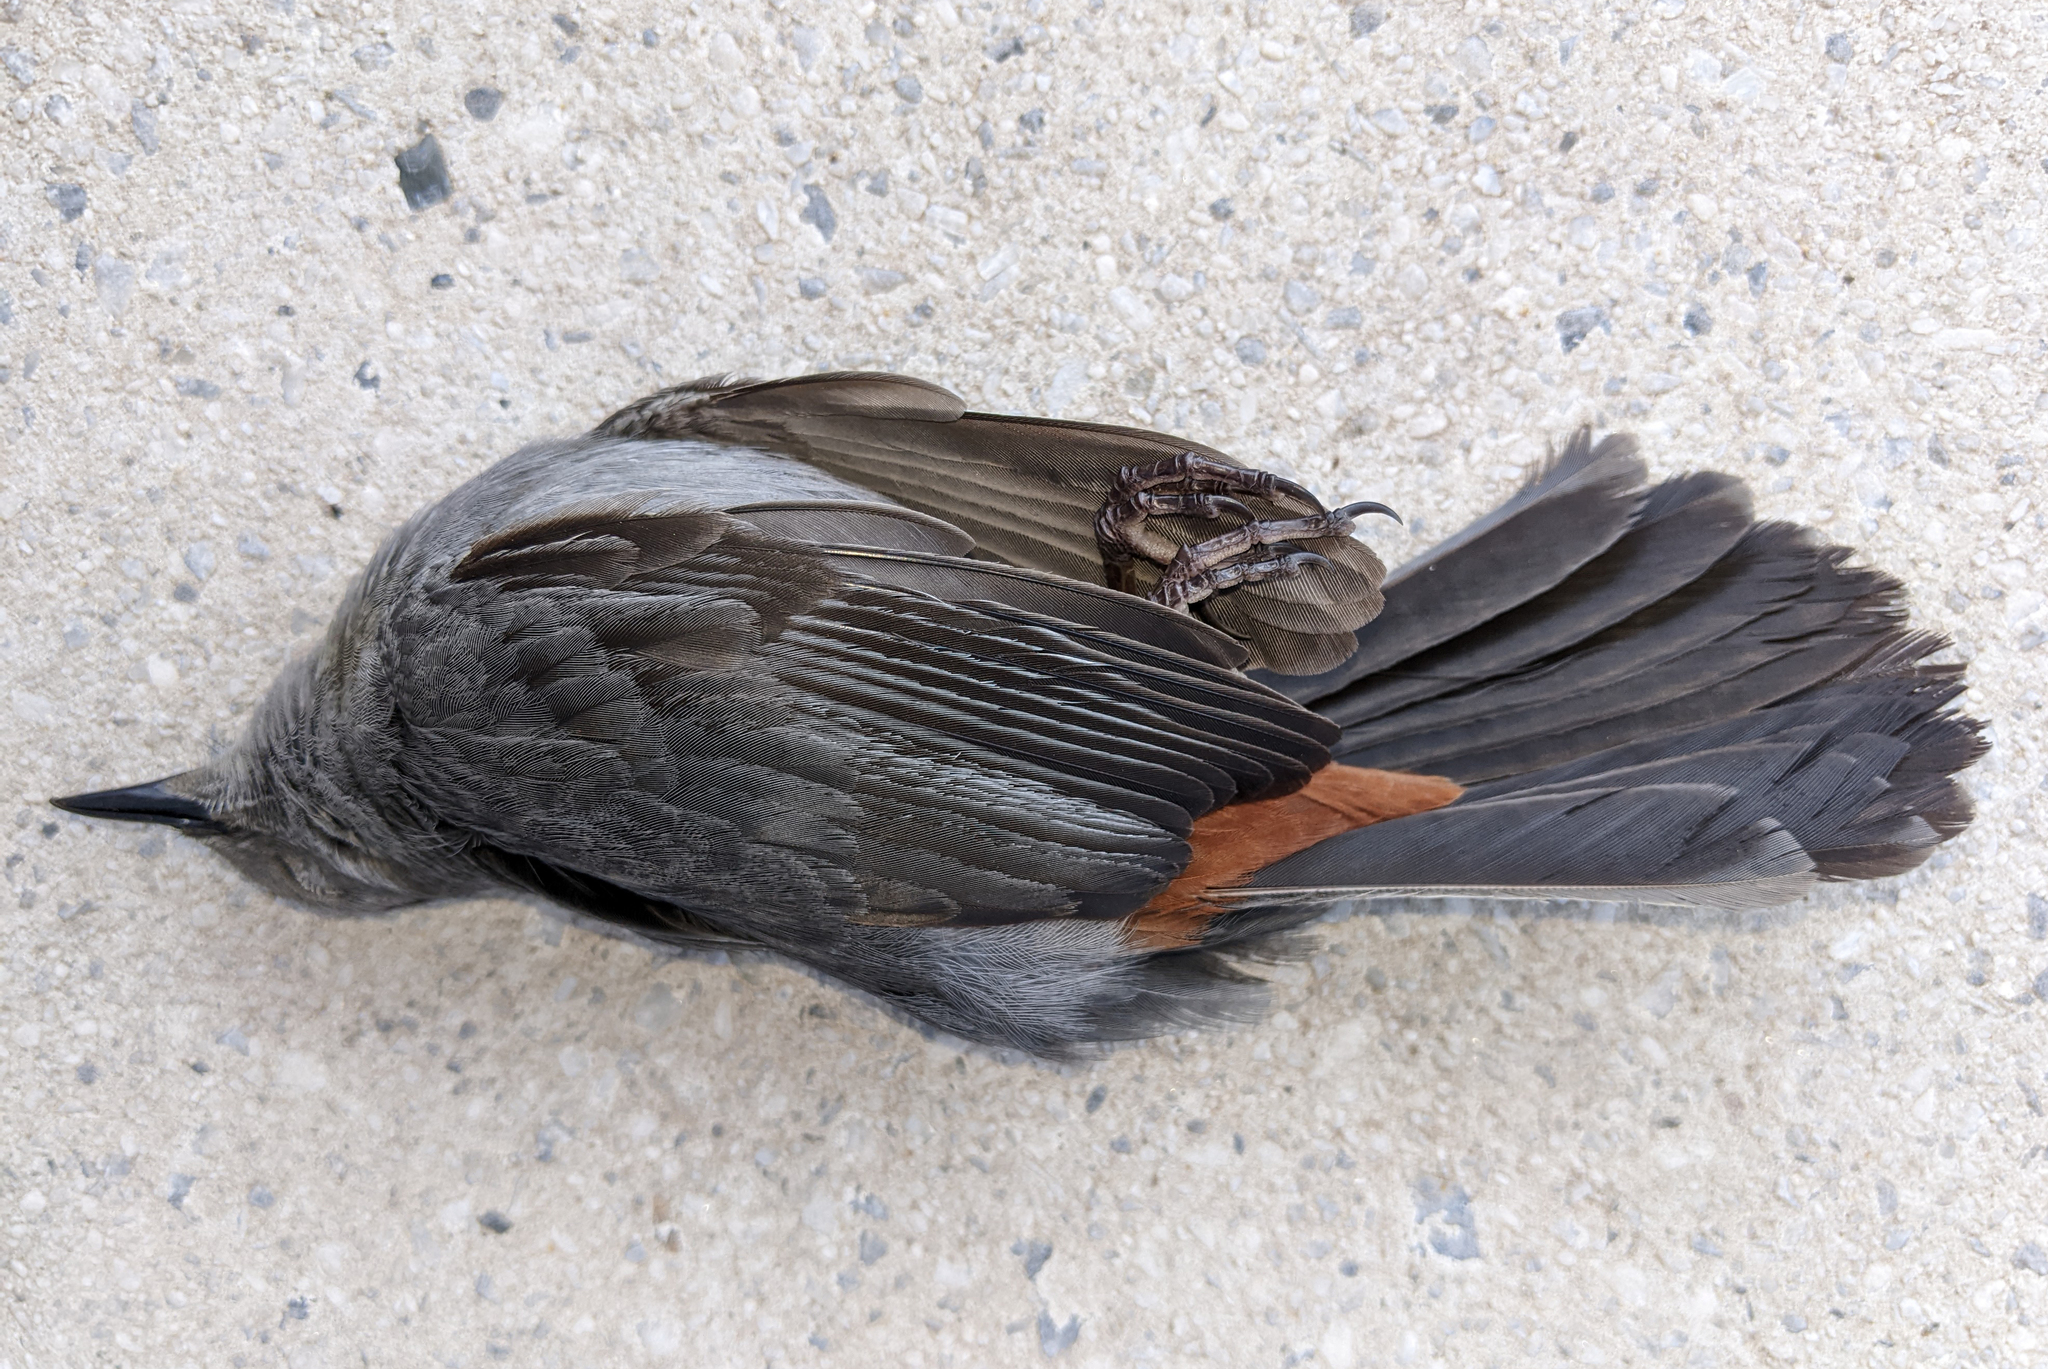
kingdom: Animalia
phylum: Chordata
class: Aves
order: Passeriformes
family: Mimidae
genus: Dumetella
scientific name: Dumetella carolinensis
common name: Gray catbird
